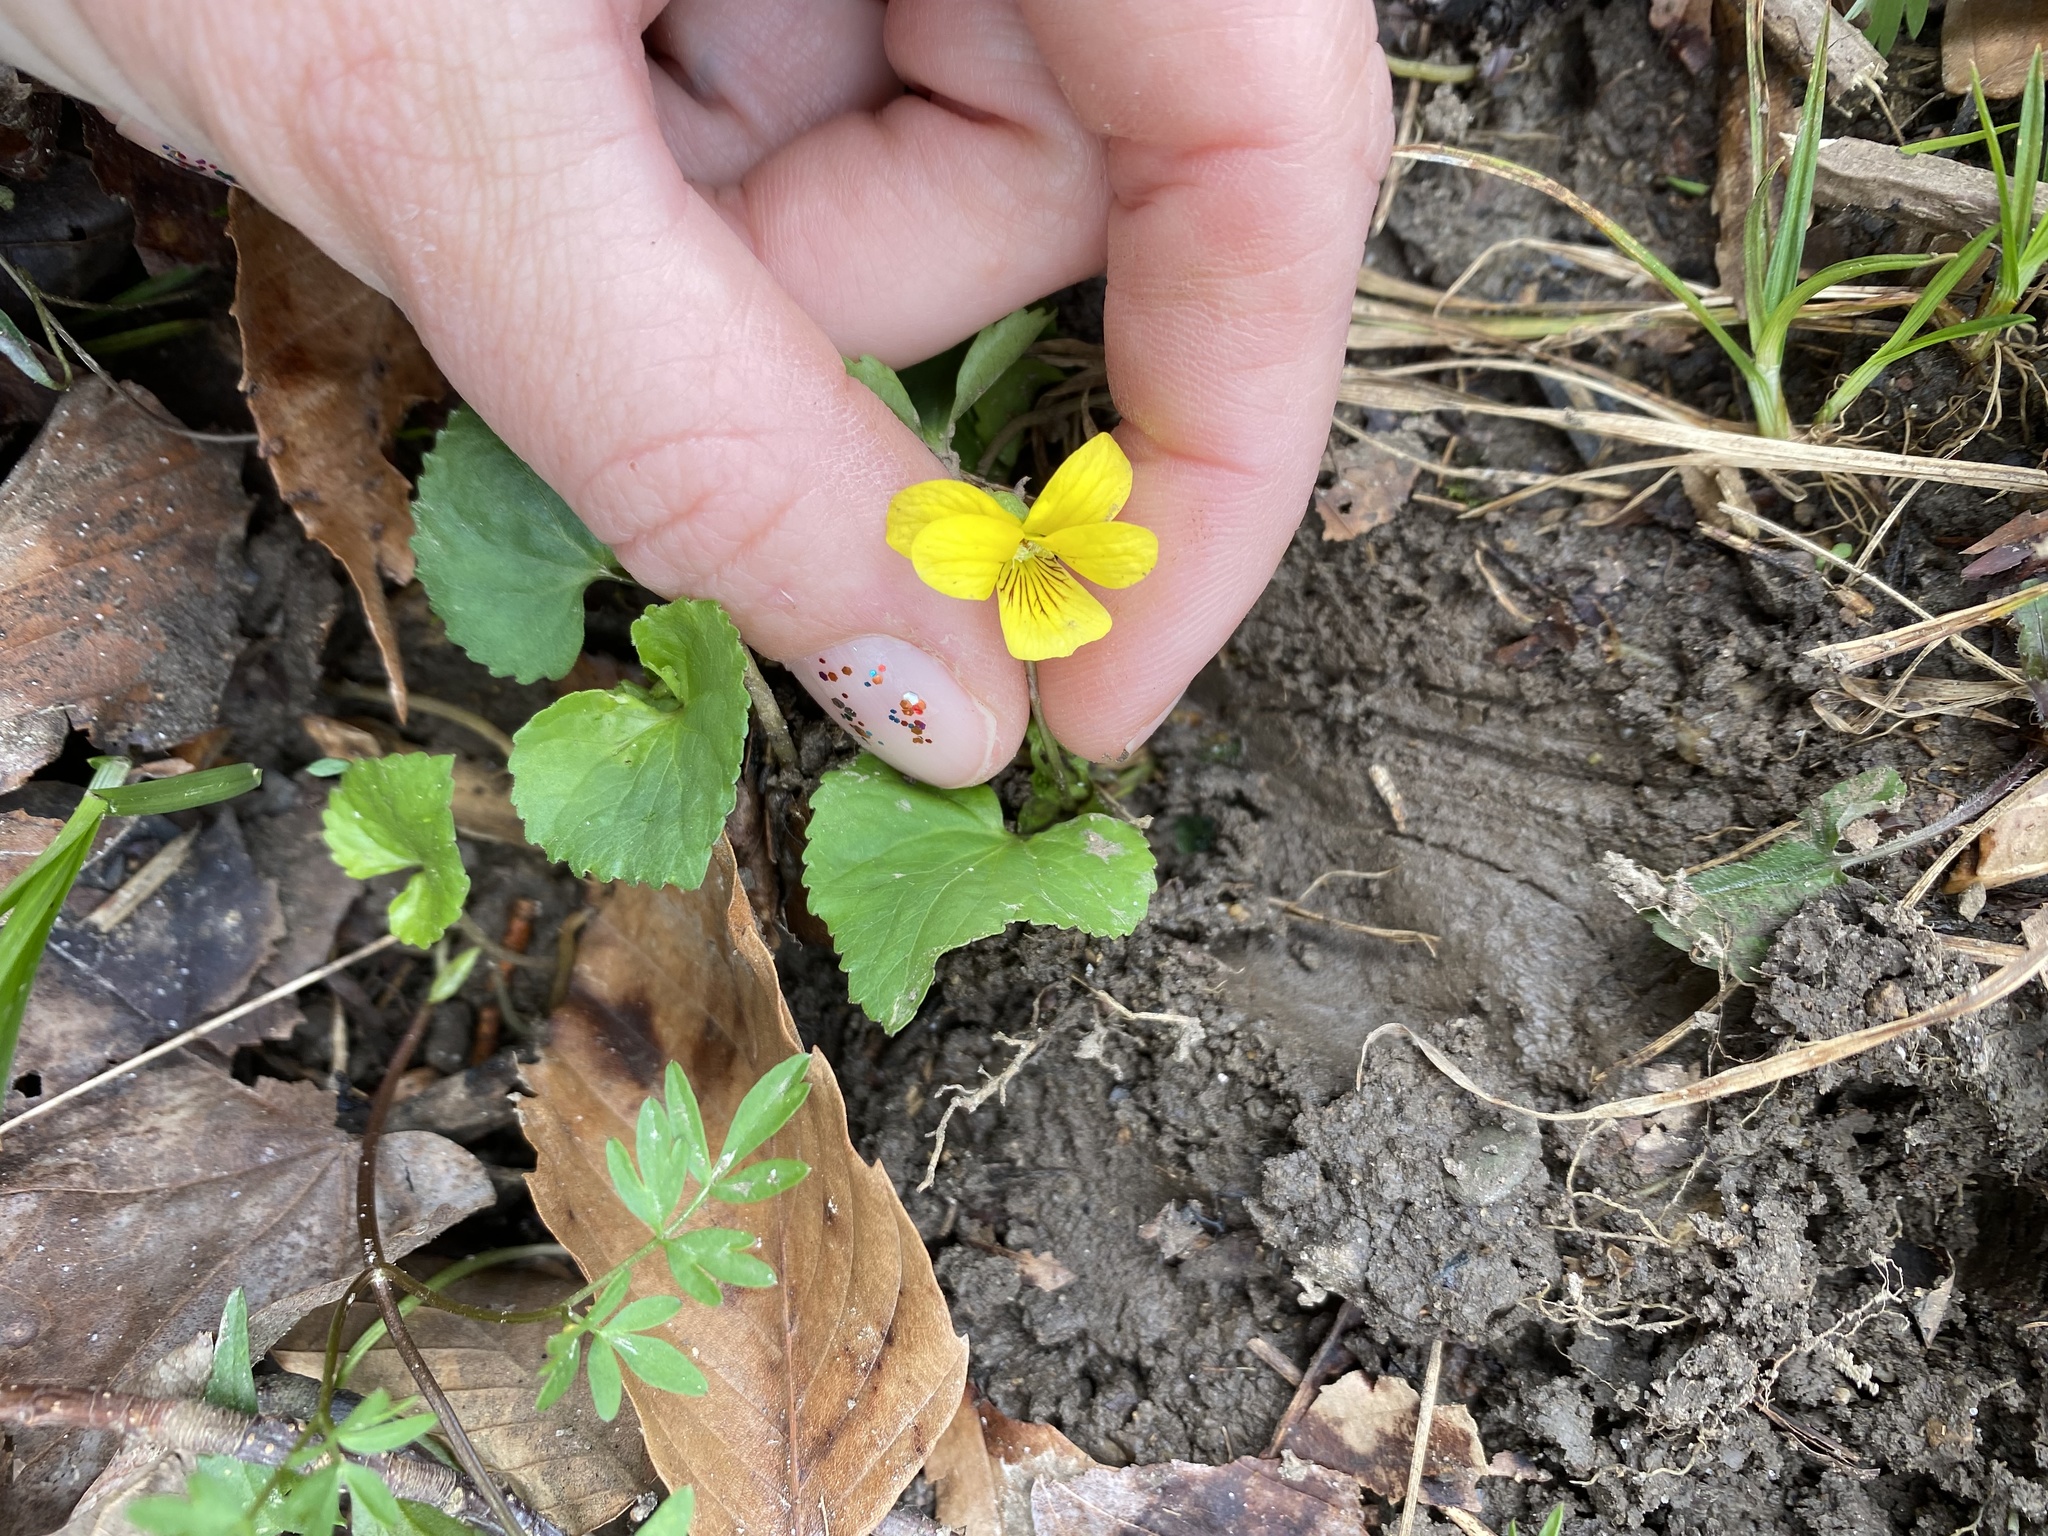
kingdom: Plantae
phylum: Tracheophyta
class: Magnoliopsida
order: Malpighiales
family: Violaceae
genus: Viola
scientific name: Viola eriocarpa
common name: Smooth yellow violet
